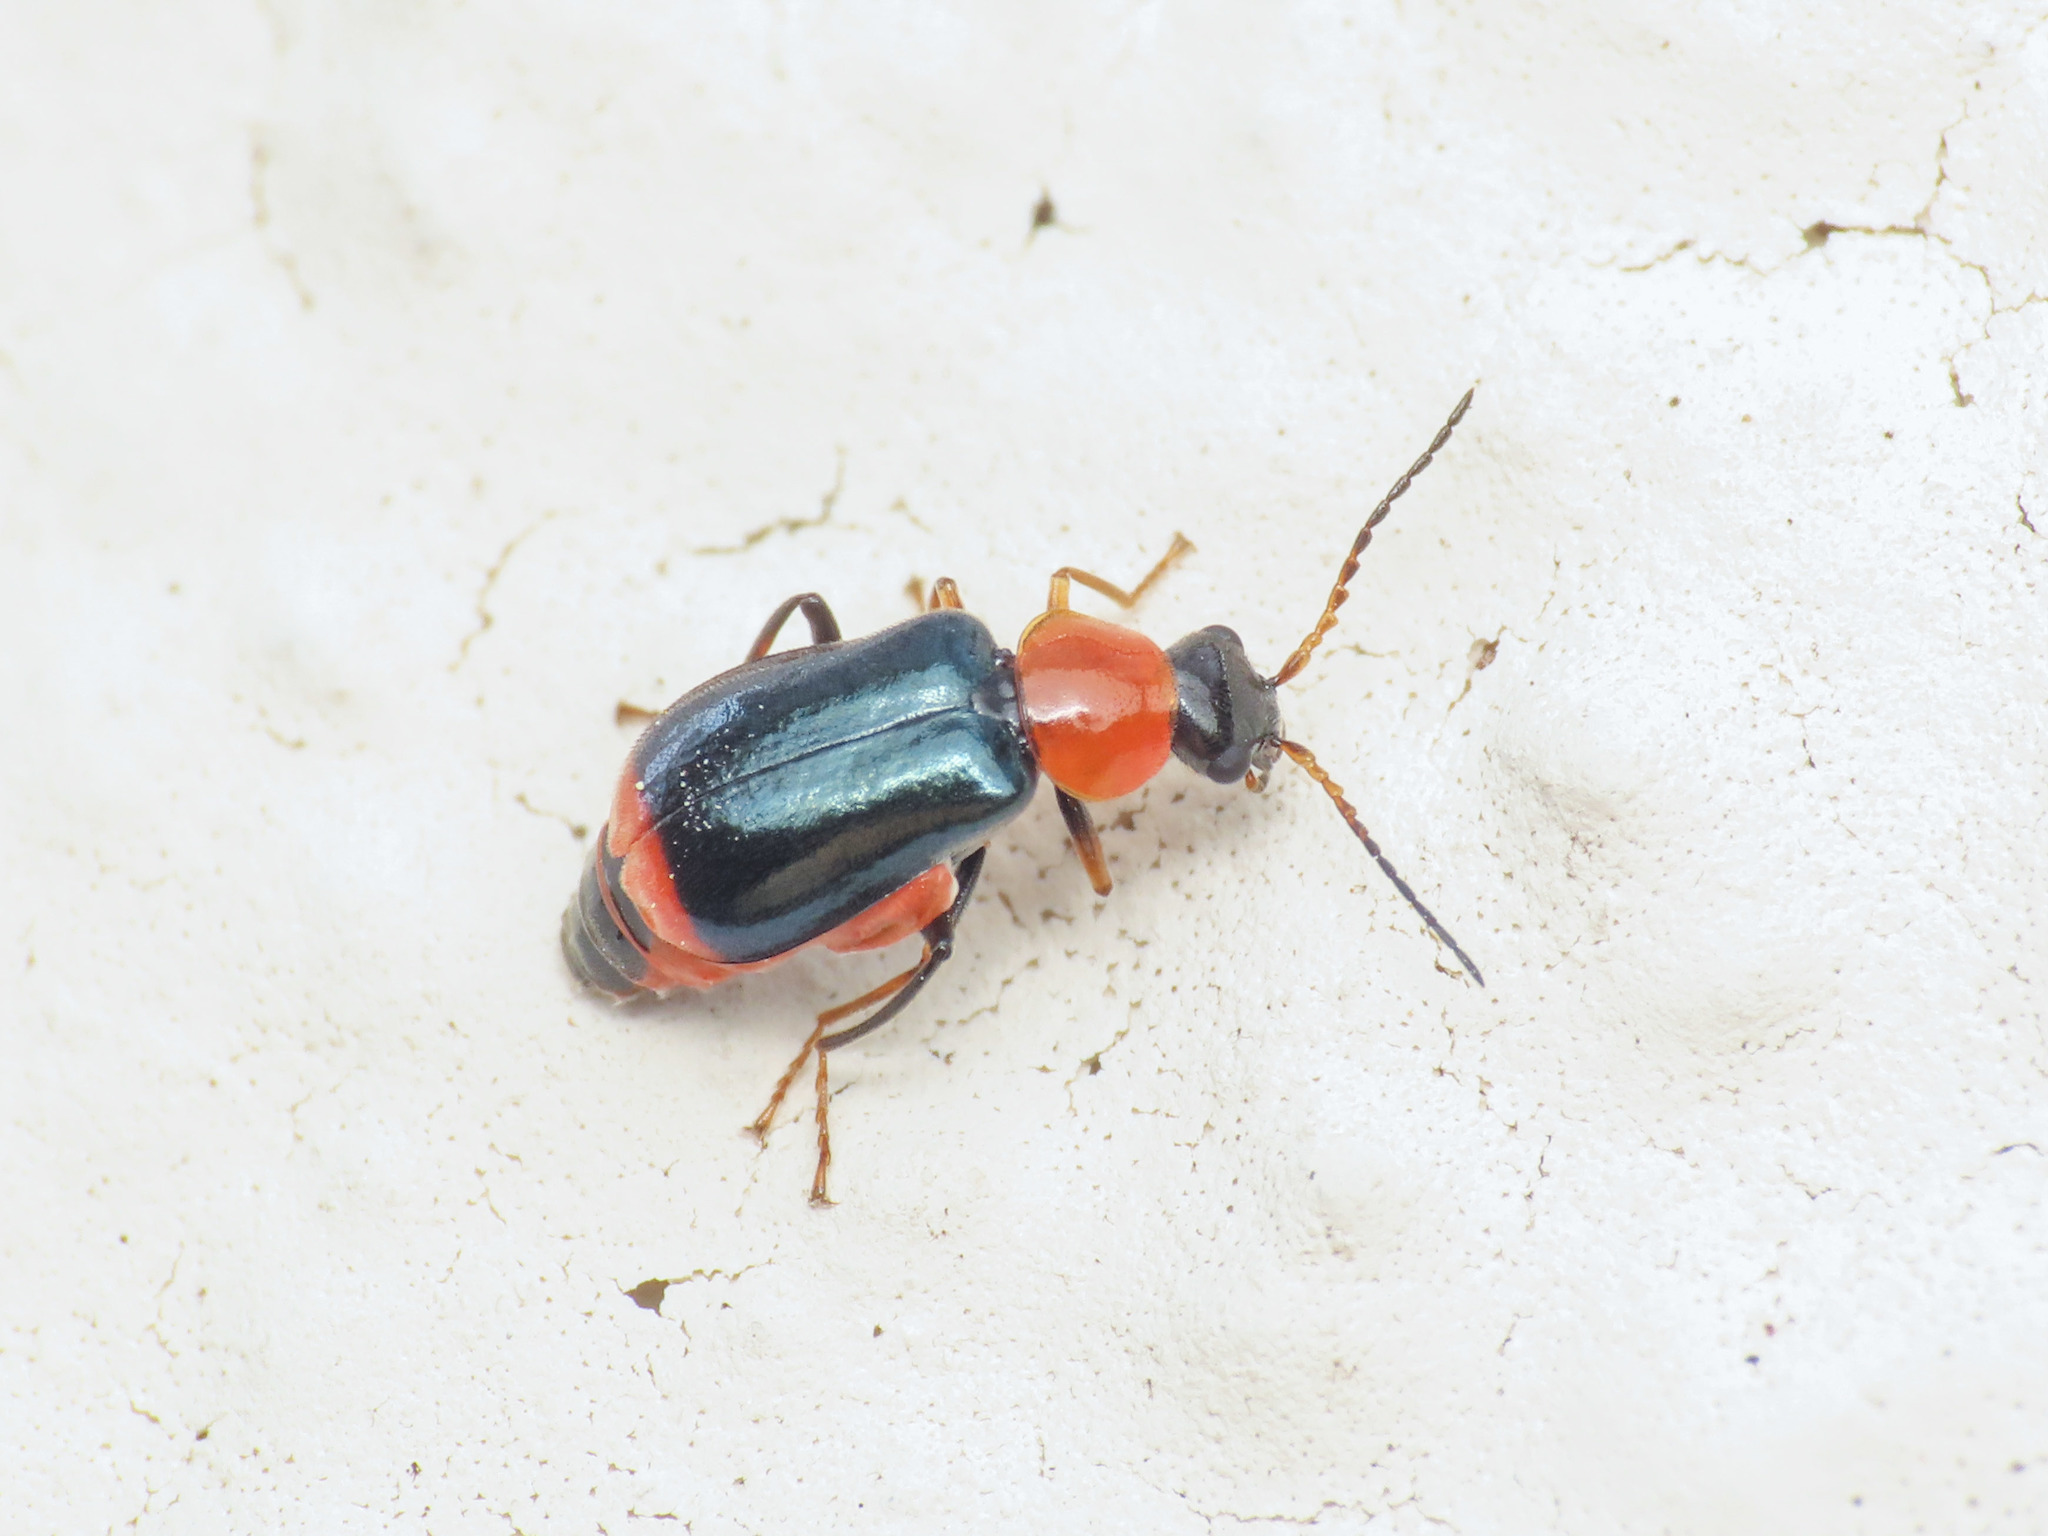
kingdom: Animalia
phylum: Arthropoda
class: Insecta
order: Coleoptera
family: Malachiidae
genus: Ebaeus
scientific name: Ebaeus battonii
